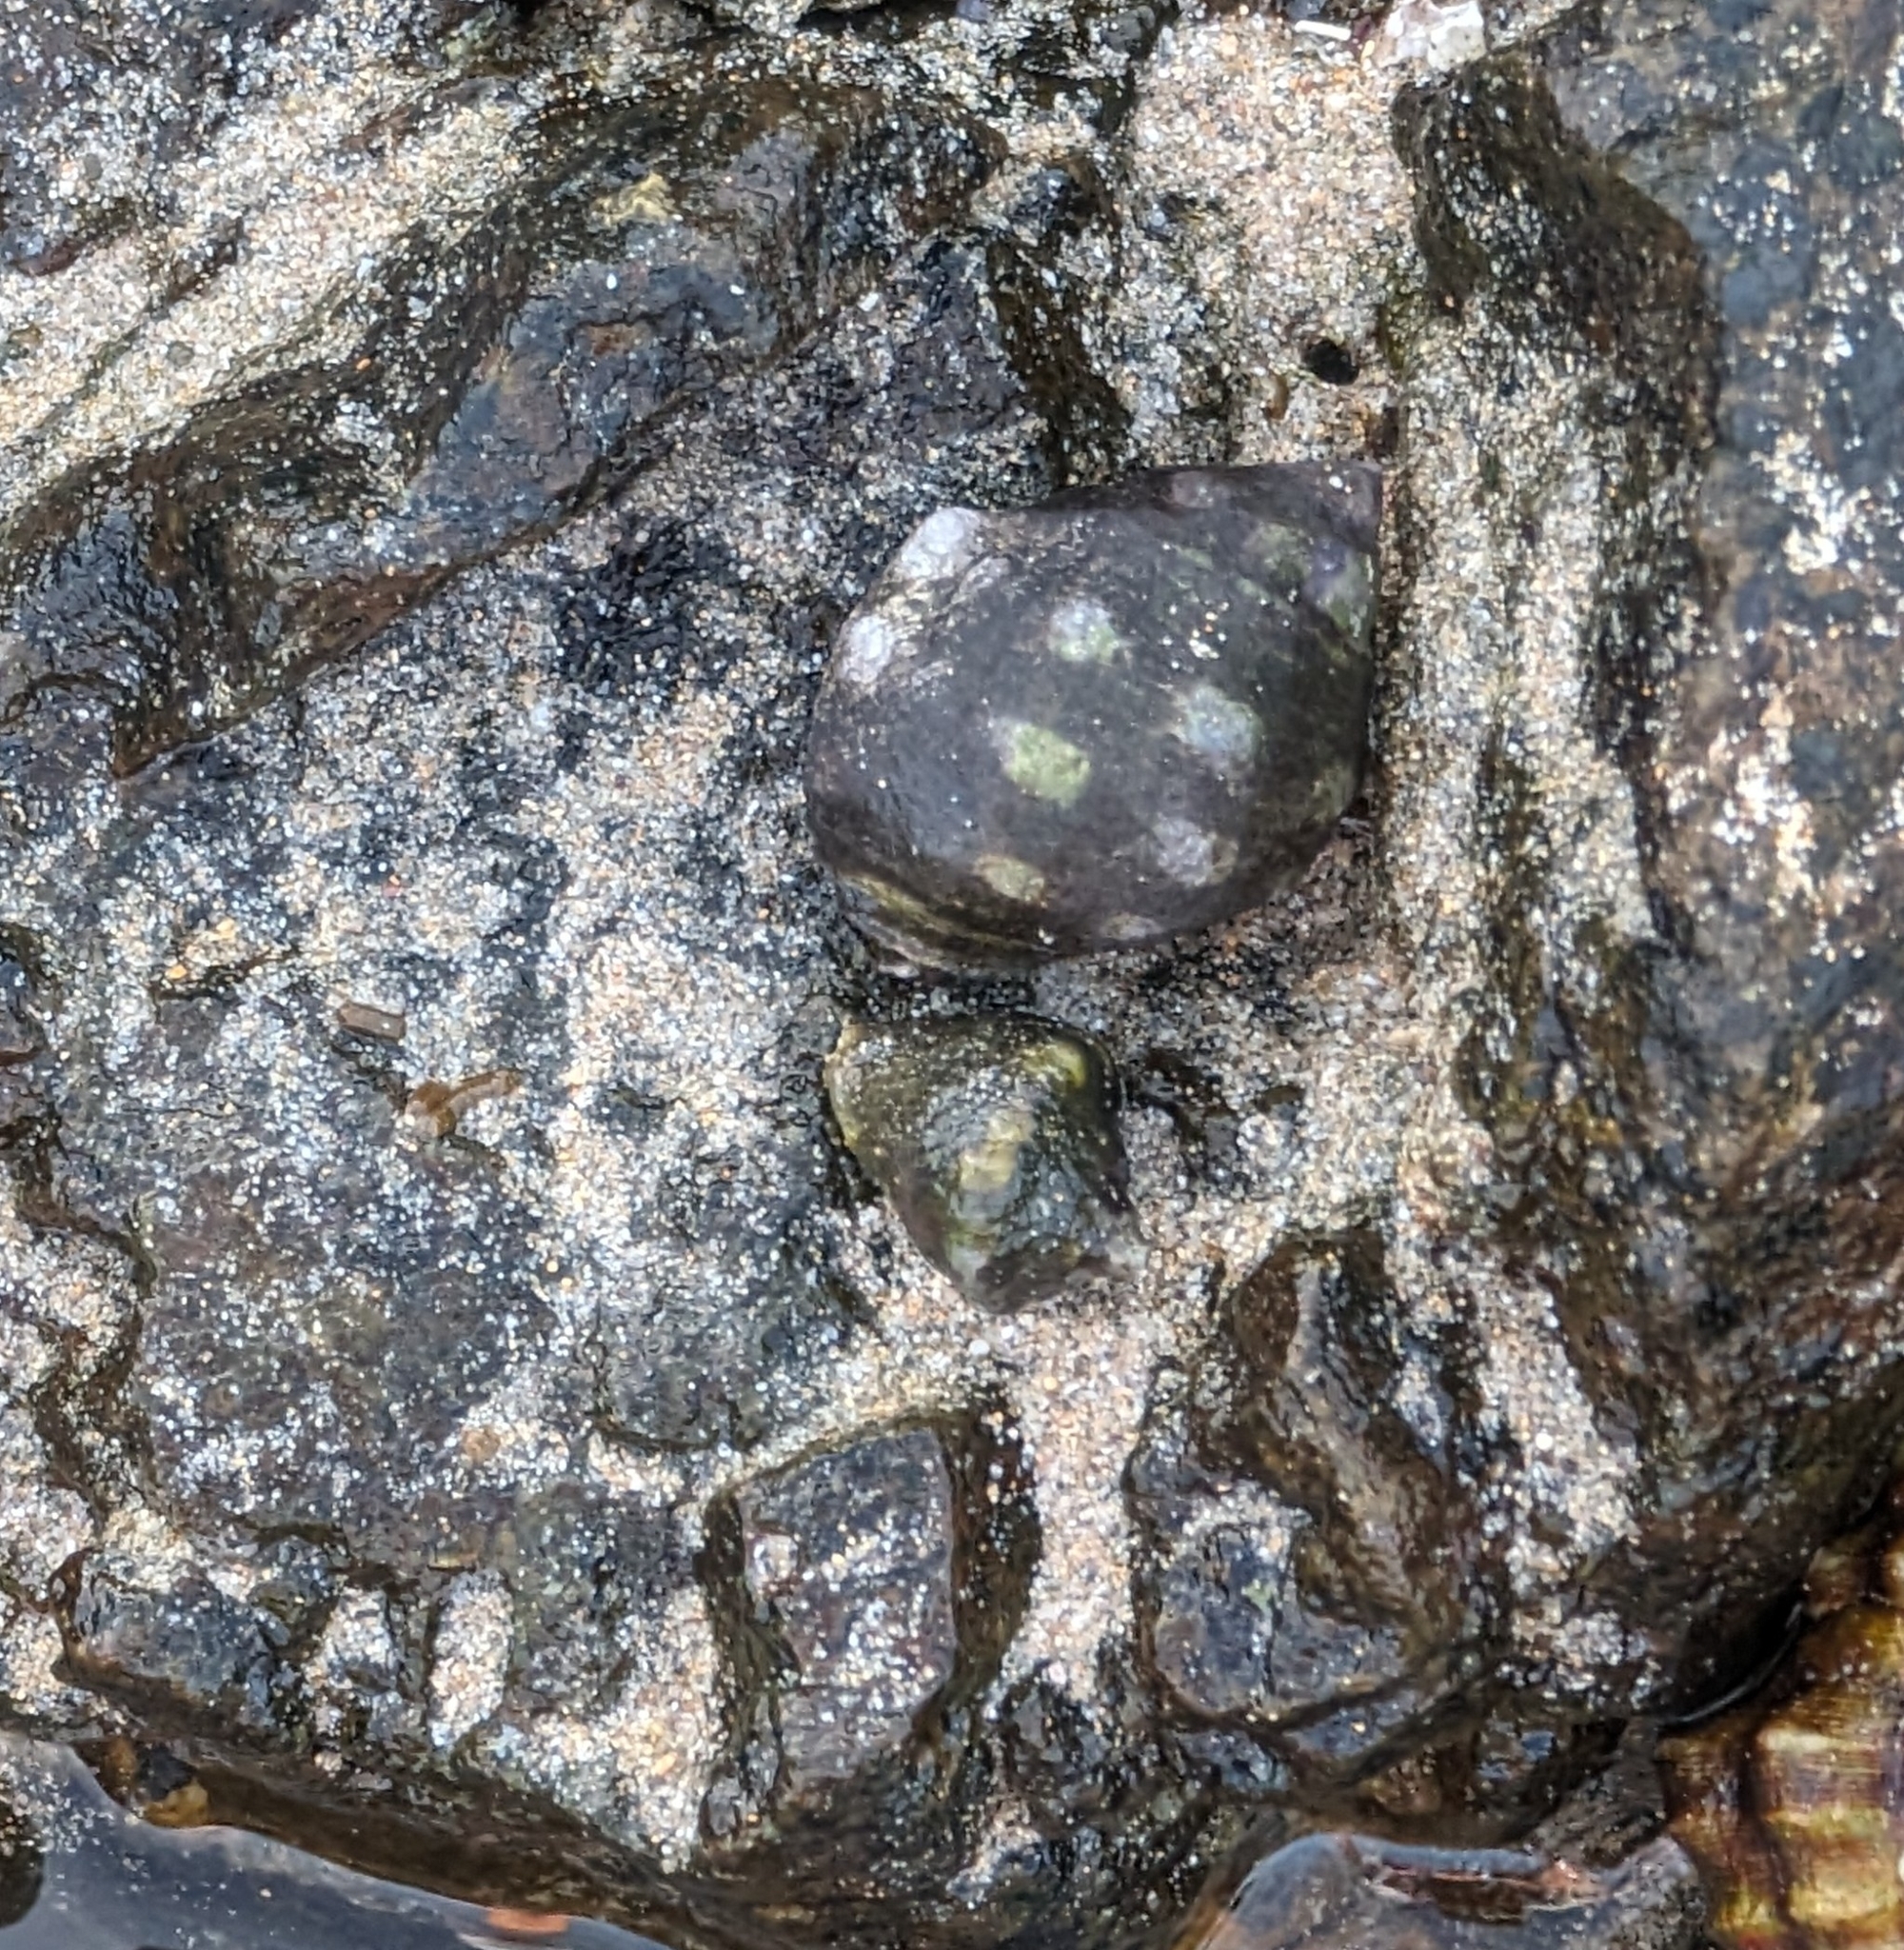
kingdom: Animalia
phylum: Mollusca
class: Gastropoda
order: Neogastropoda
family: Muricidae
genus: Acanthais
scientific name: Acanthais brevidentata
